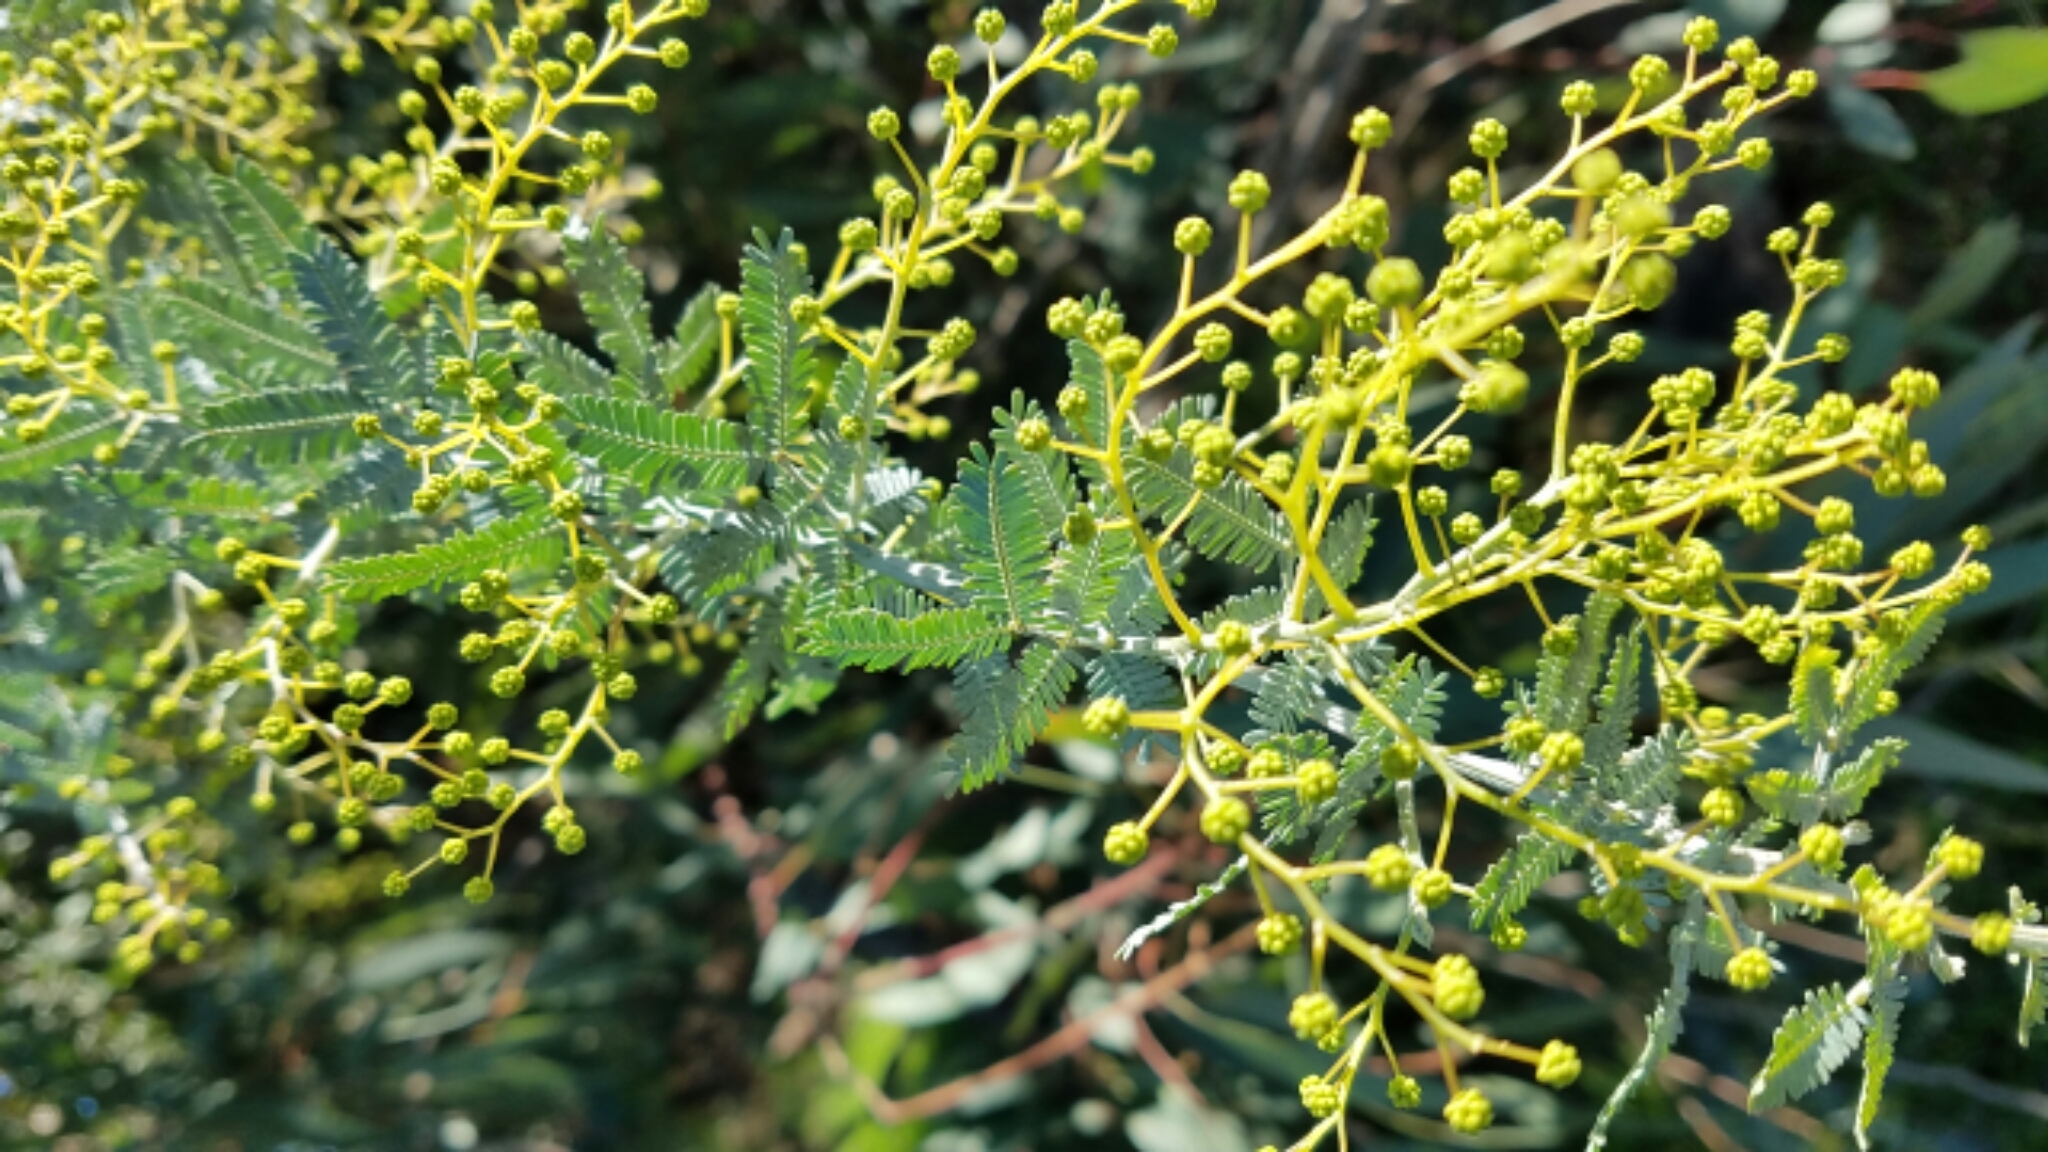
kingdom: Plantae
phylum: Tracheophyta
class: Magnoliopsida
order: Fabales
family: Fabaceae
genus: Acacia
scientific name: Acacia baileyana
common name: Cootamundra wattle
